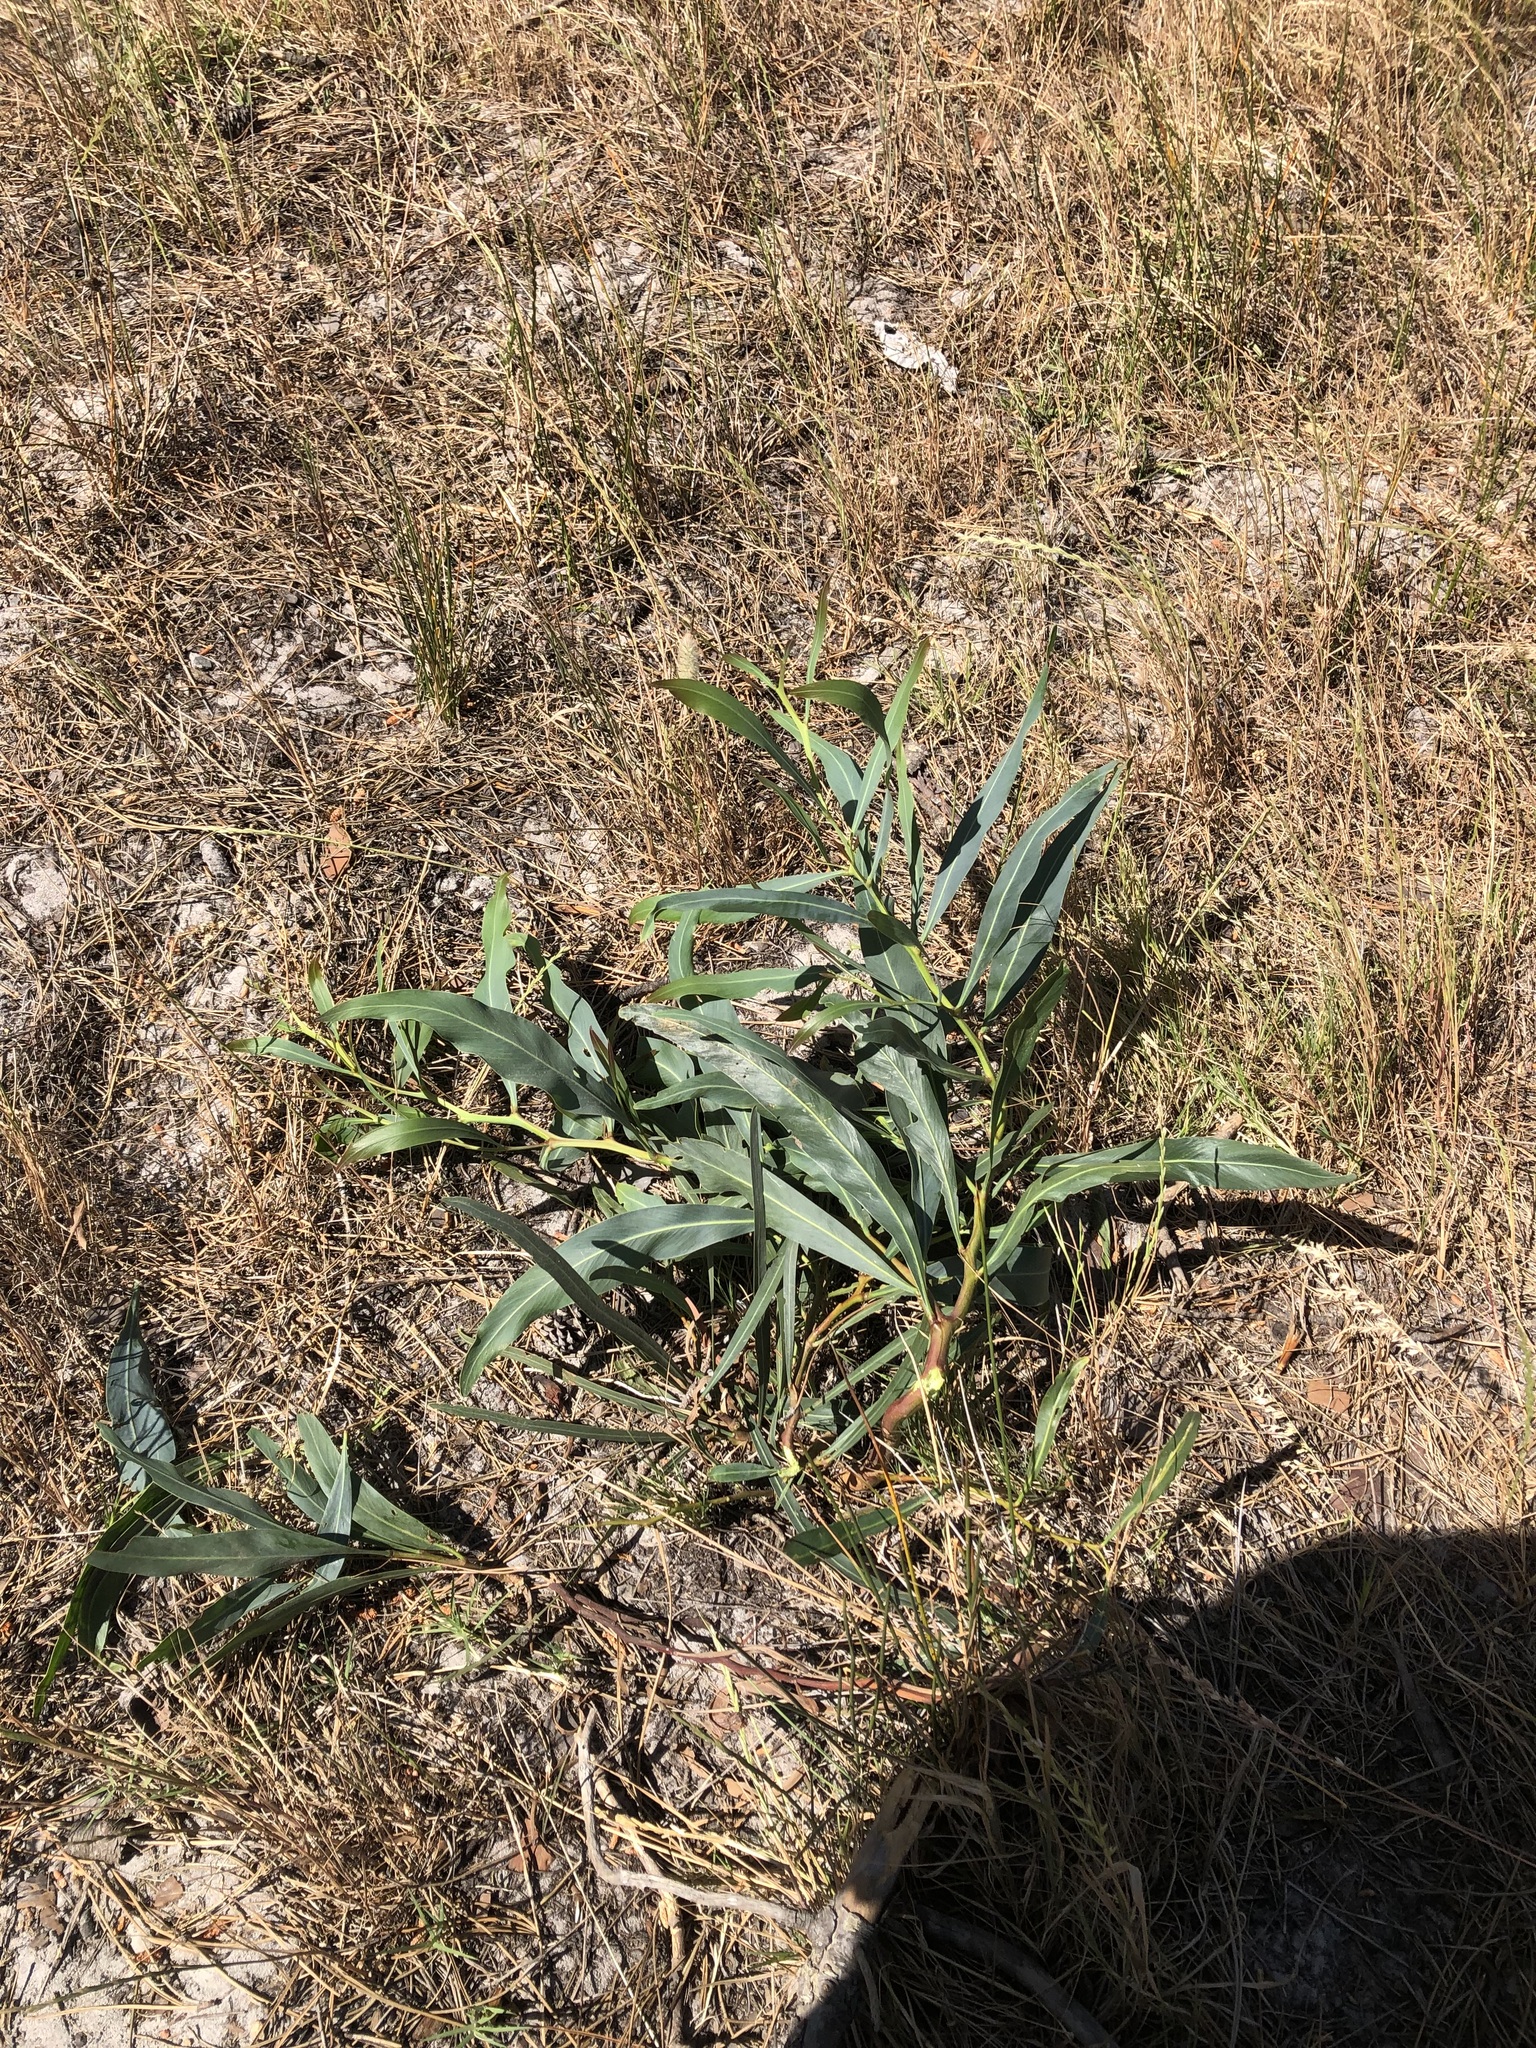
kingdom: Plantae
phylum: Tracheophyta
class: Magnoliopsida
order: Fabales
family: Fabaceae
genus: Acacia
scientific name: Acacia saligna
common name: Orange wattle
